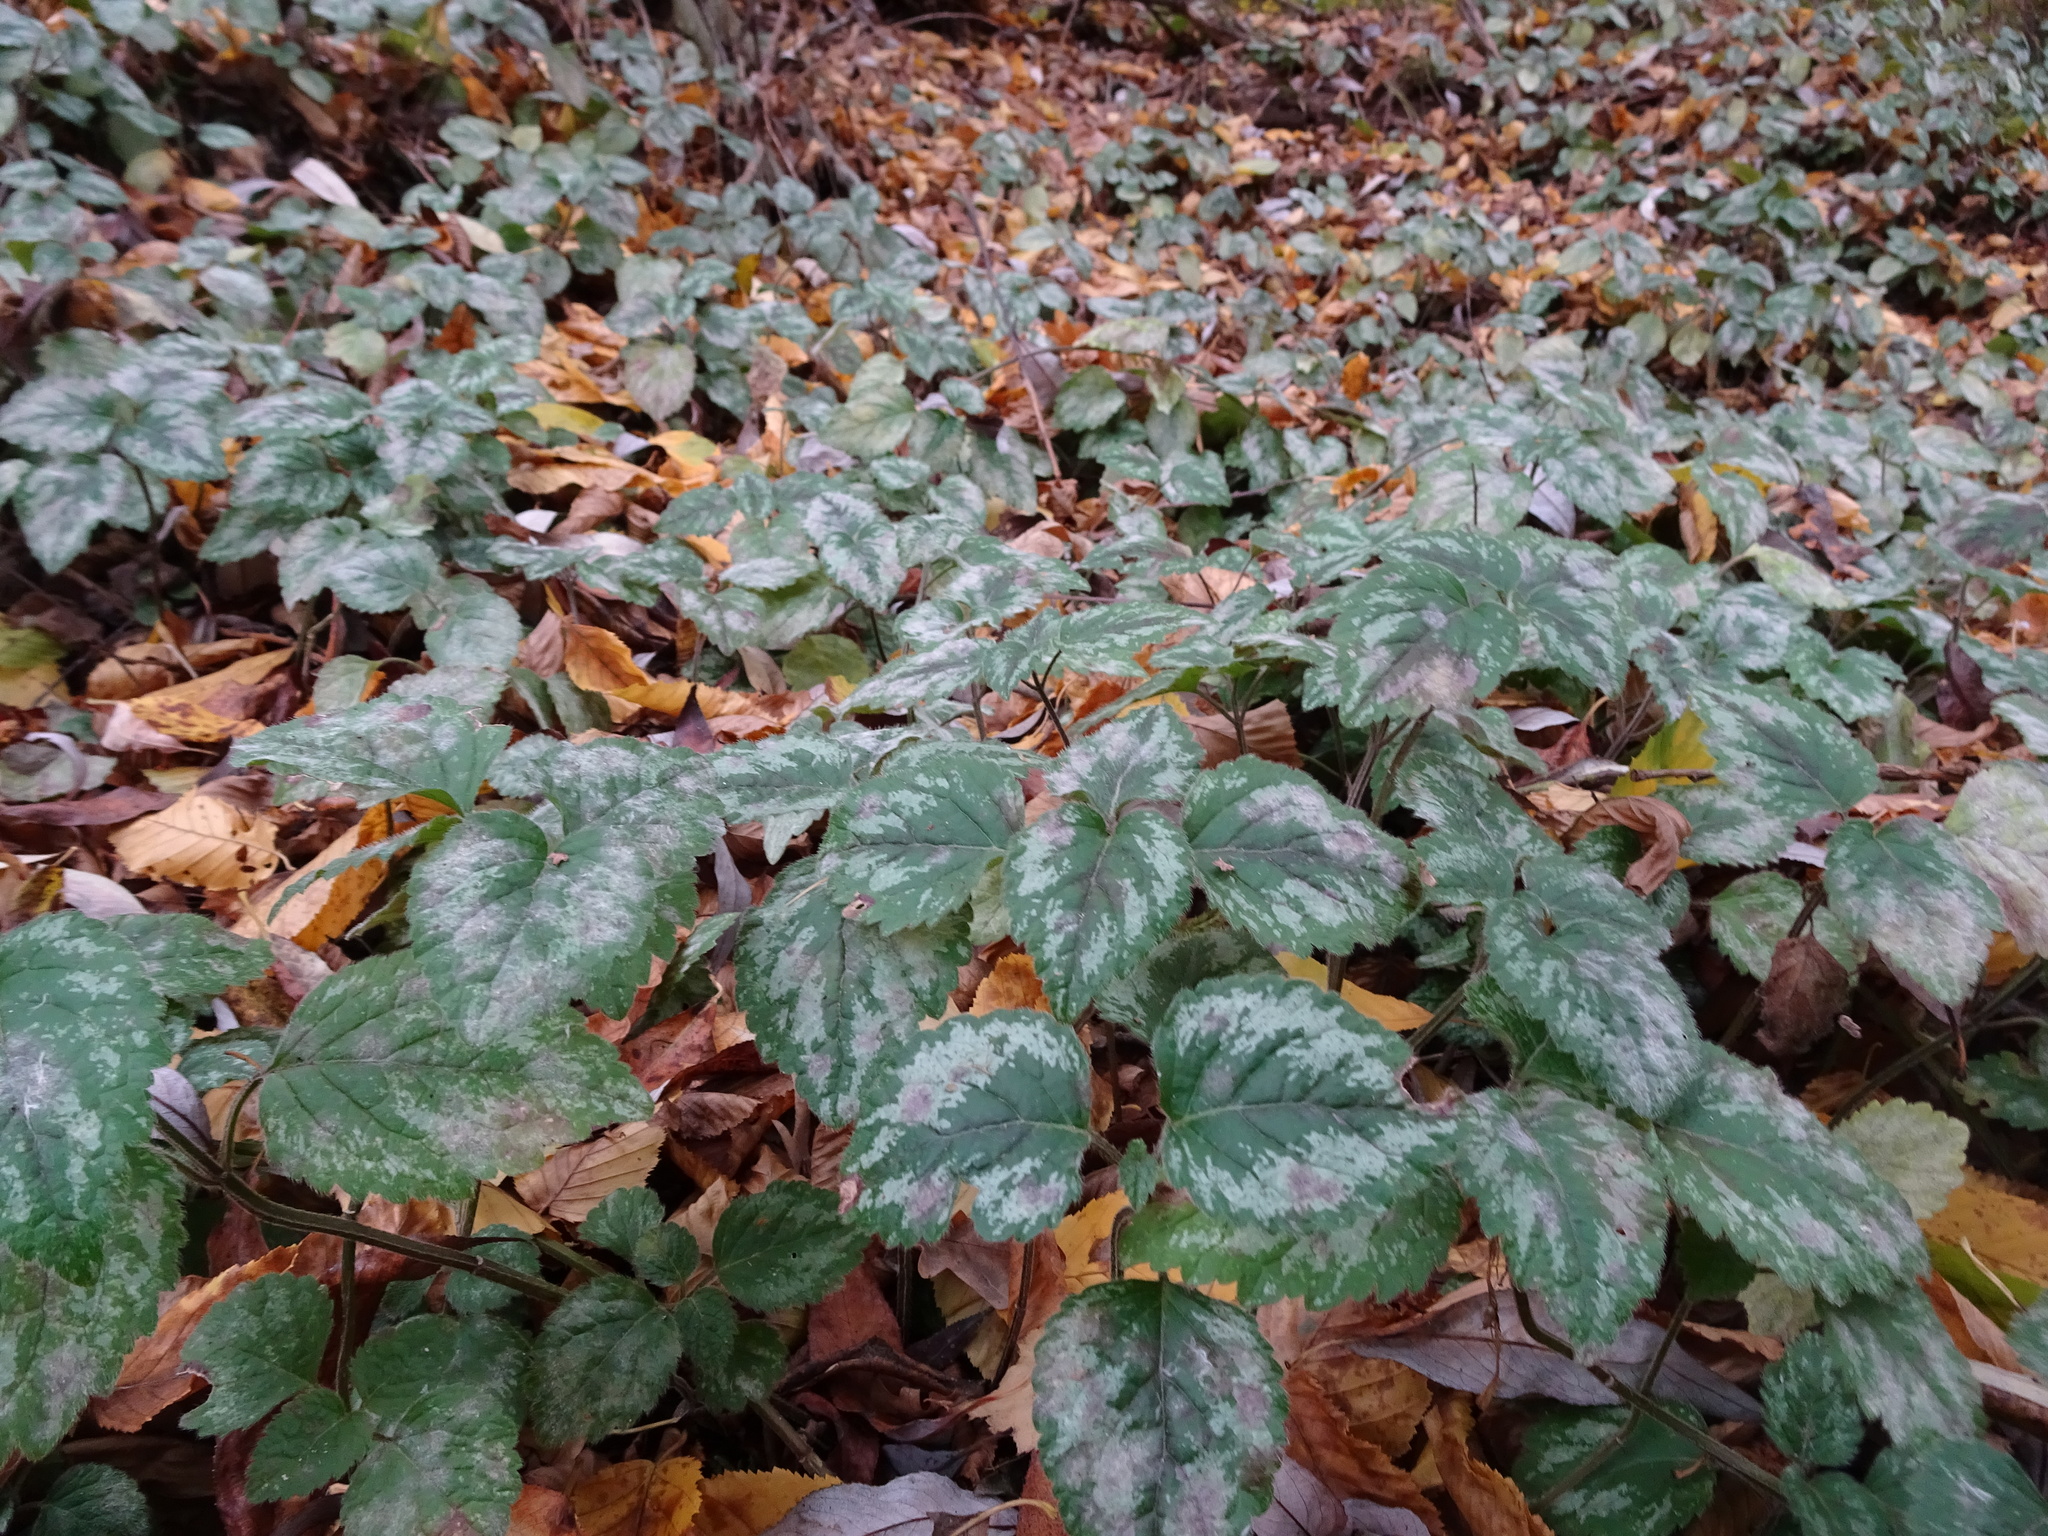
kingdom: Plantae
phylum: Tracheophyta
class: Magnoliopsida
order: Lamiales
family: Lamiaceae
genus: Lamium
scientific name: Lamium galeobdolon
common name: Yellow archangel
